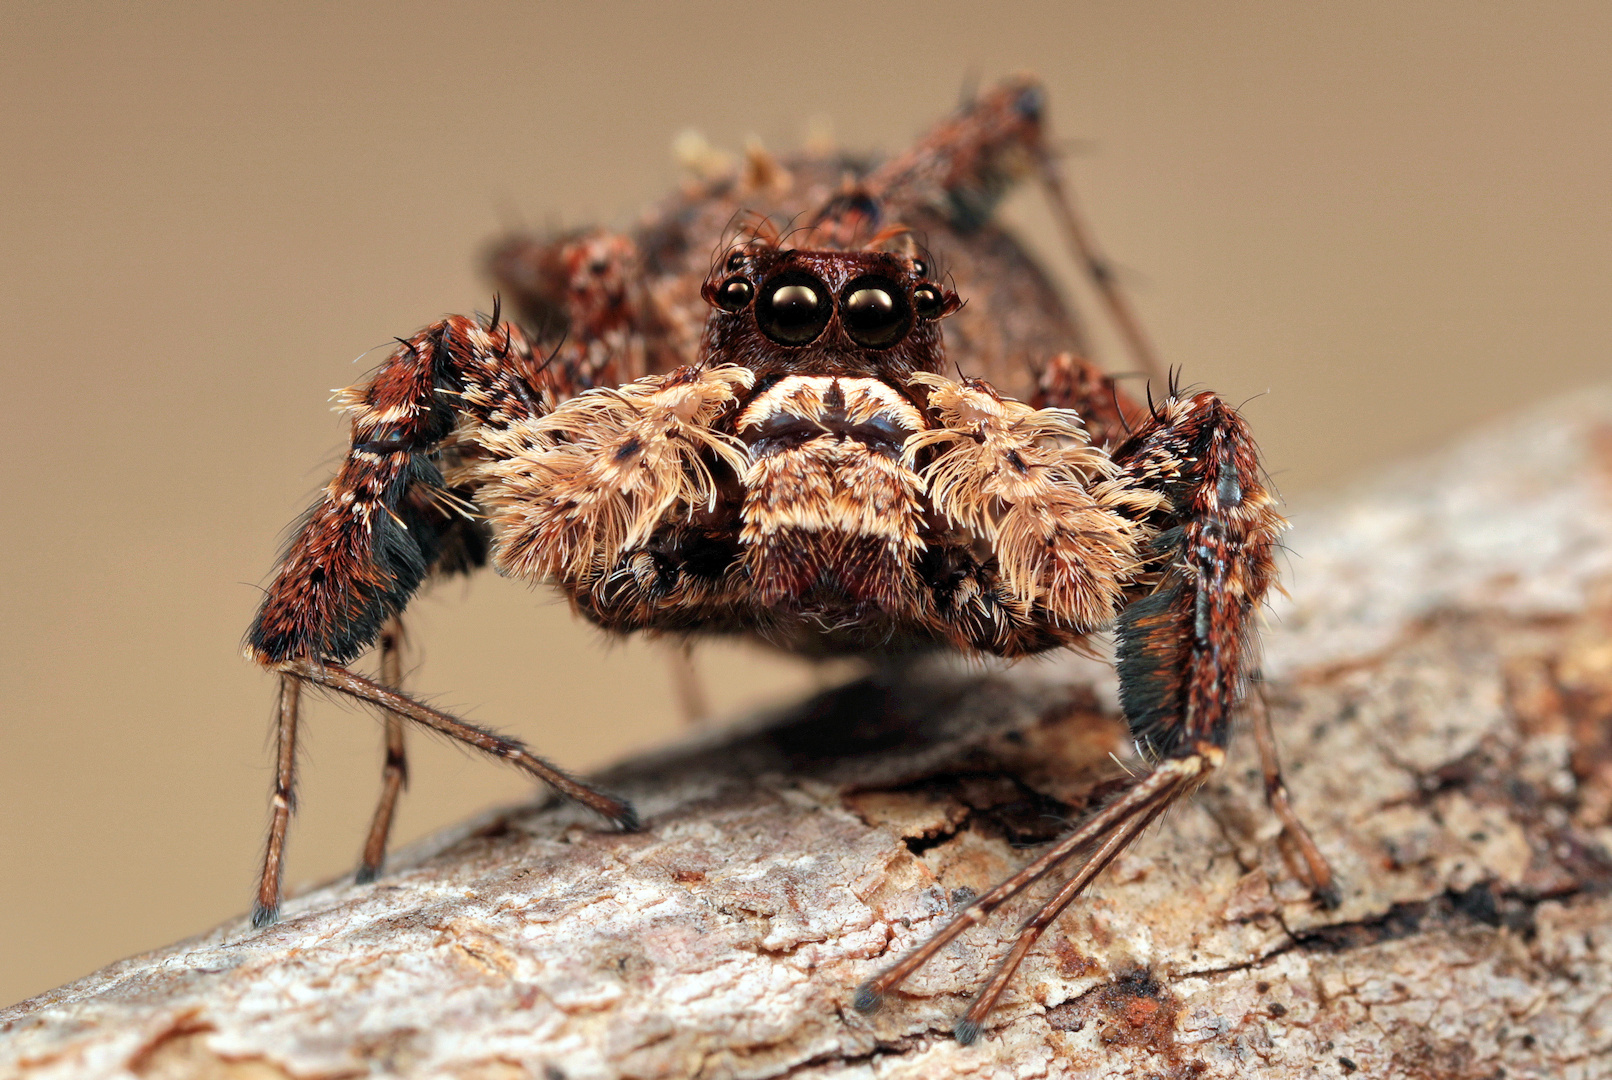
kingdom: Animalia
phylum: Arthropoda
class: Arachnida
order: Araneae
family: Salticidae
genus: Portia
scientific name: Portia schultzi
